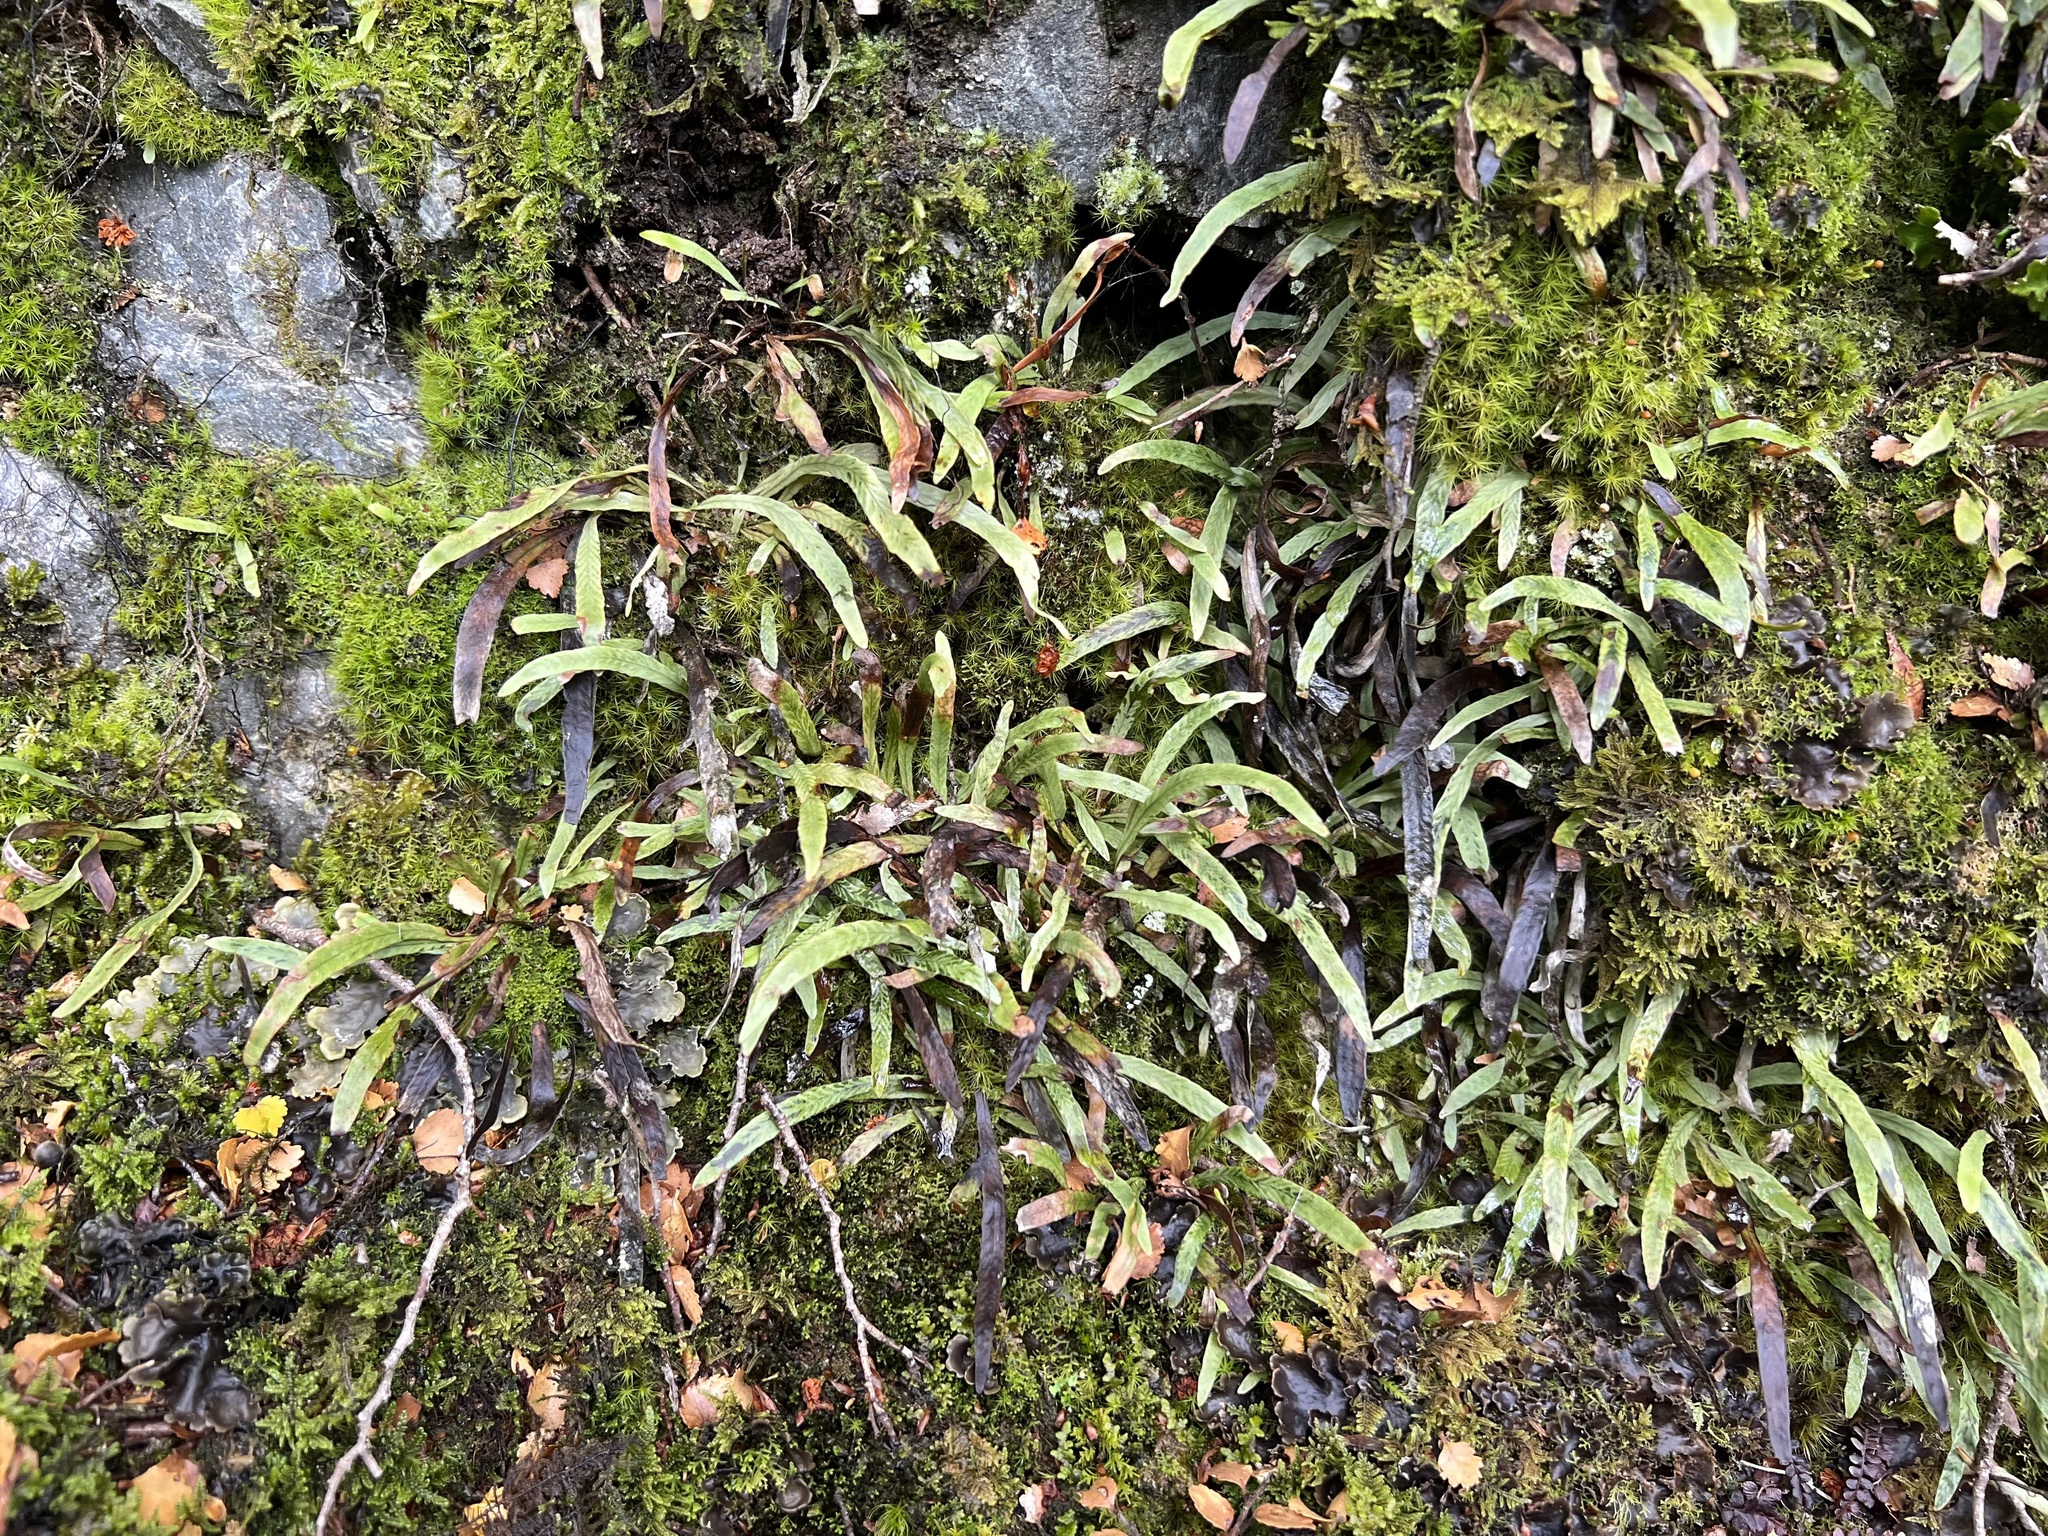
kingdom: Plantae
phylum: Tracheophyta
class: Polypodiopsida
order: Polypodiales
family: Polypodiaceae
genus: Notogrammitis
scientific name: Notogrammitis billardierei
